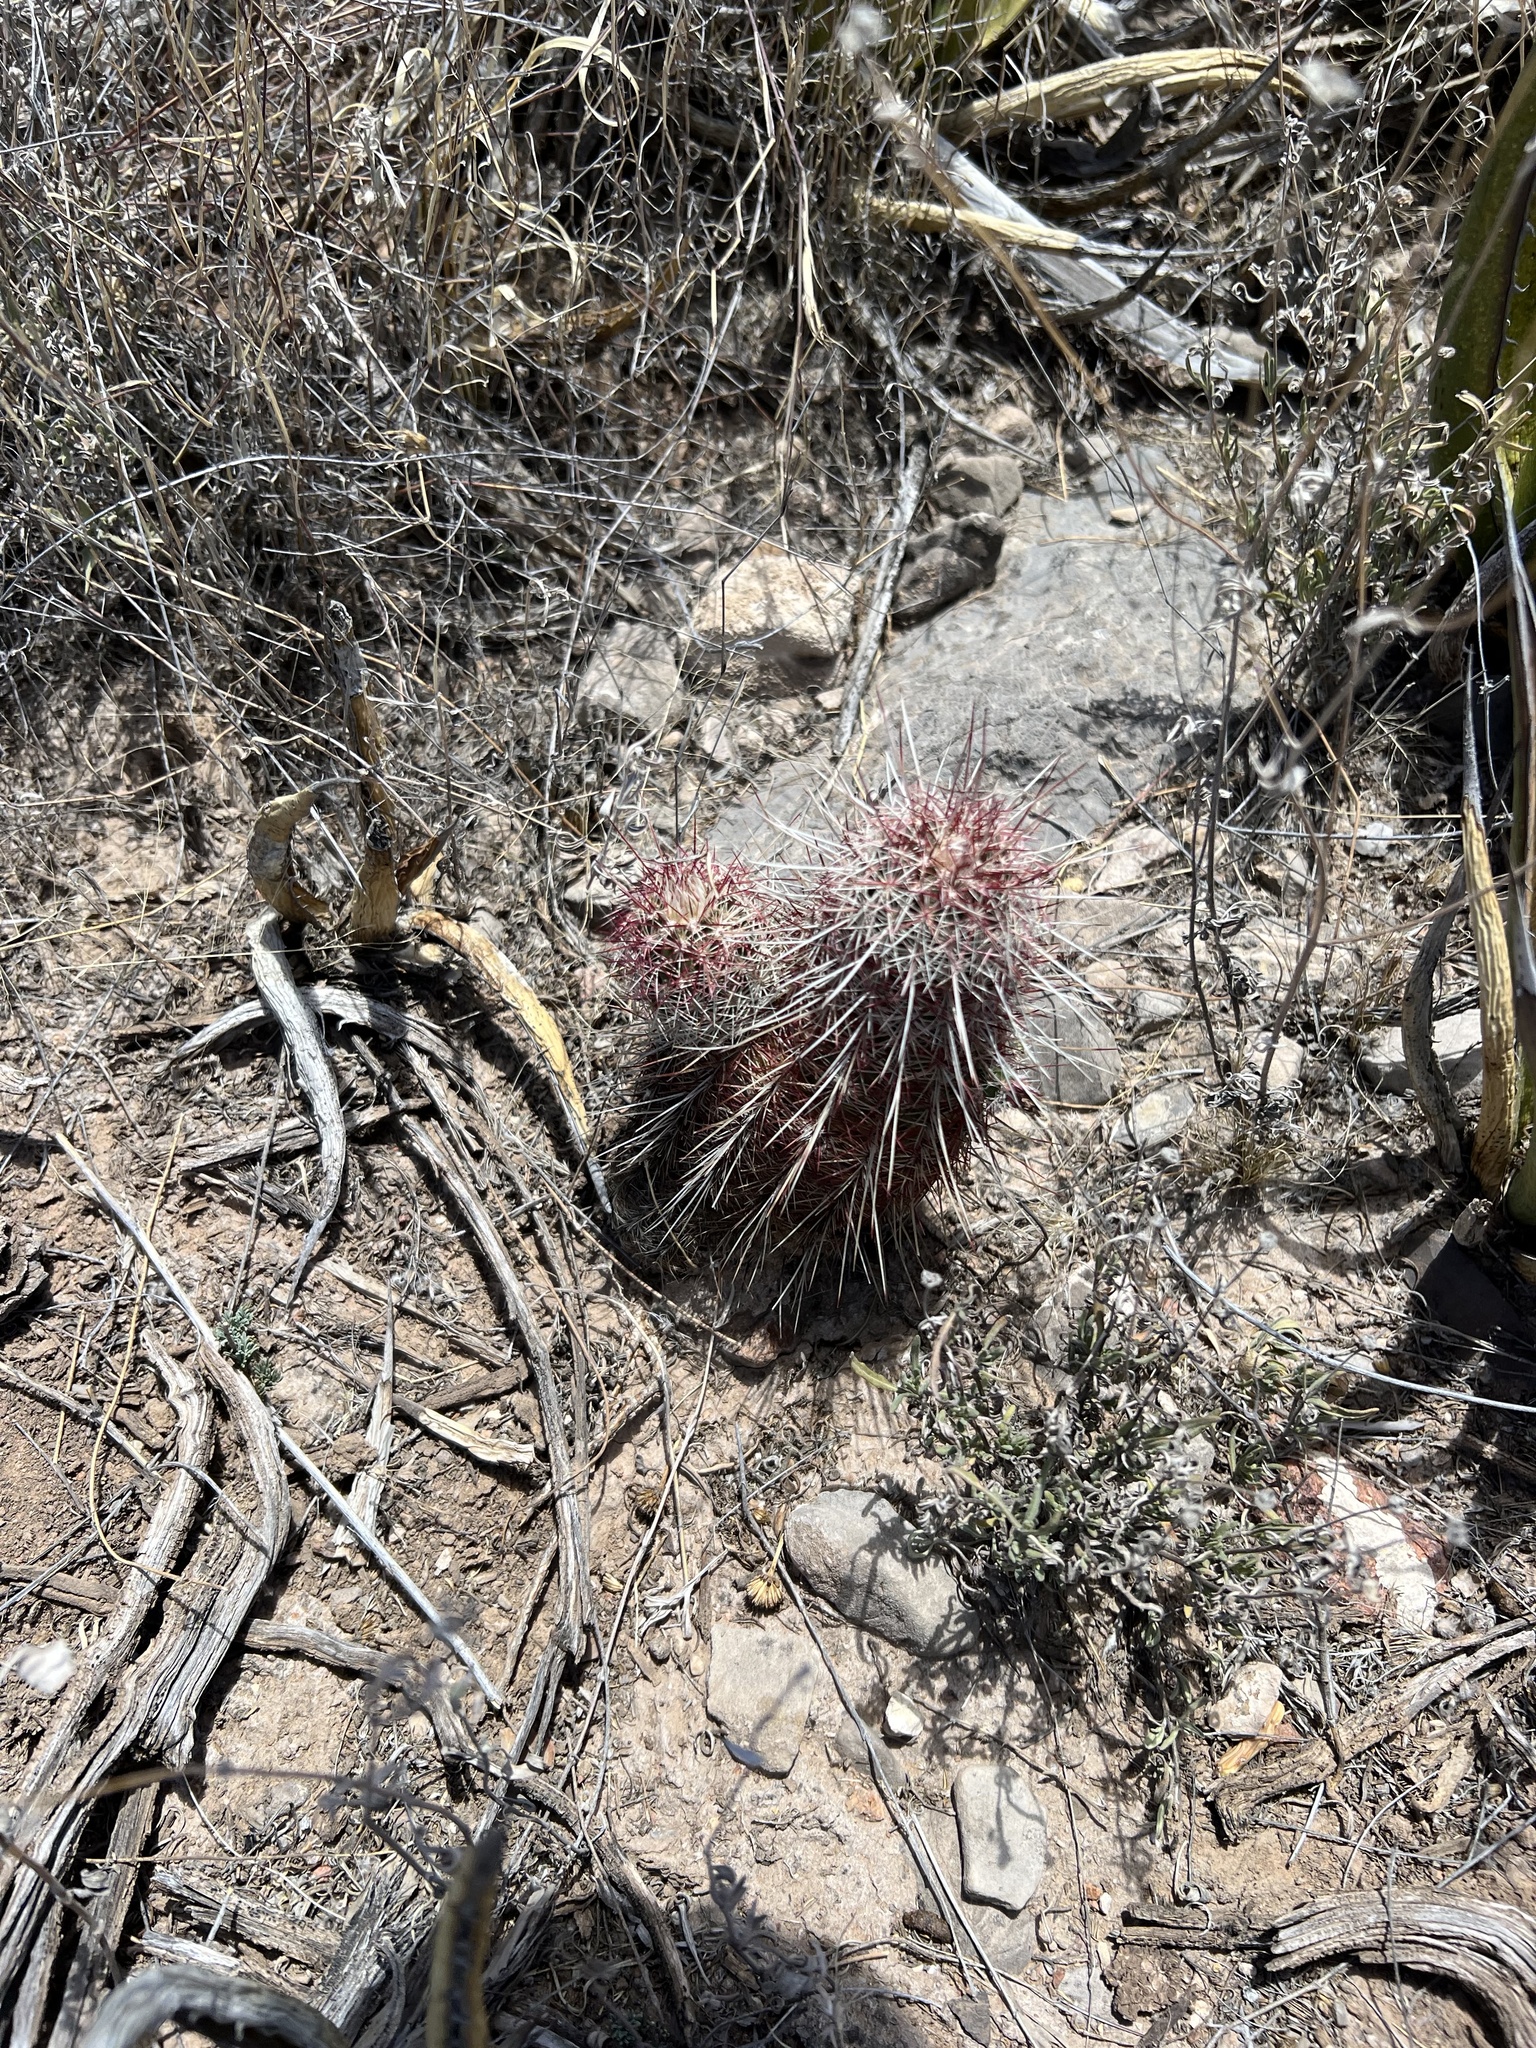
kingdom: Plantae
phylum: Tracheophyta
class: Magnoliopsida
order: Caryophyllales
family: Cactaceae
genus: Echinocereus
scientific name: Echinocereus viridiflorus
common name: Nylon hedgehog cactus
